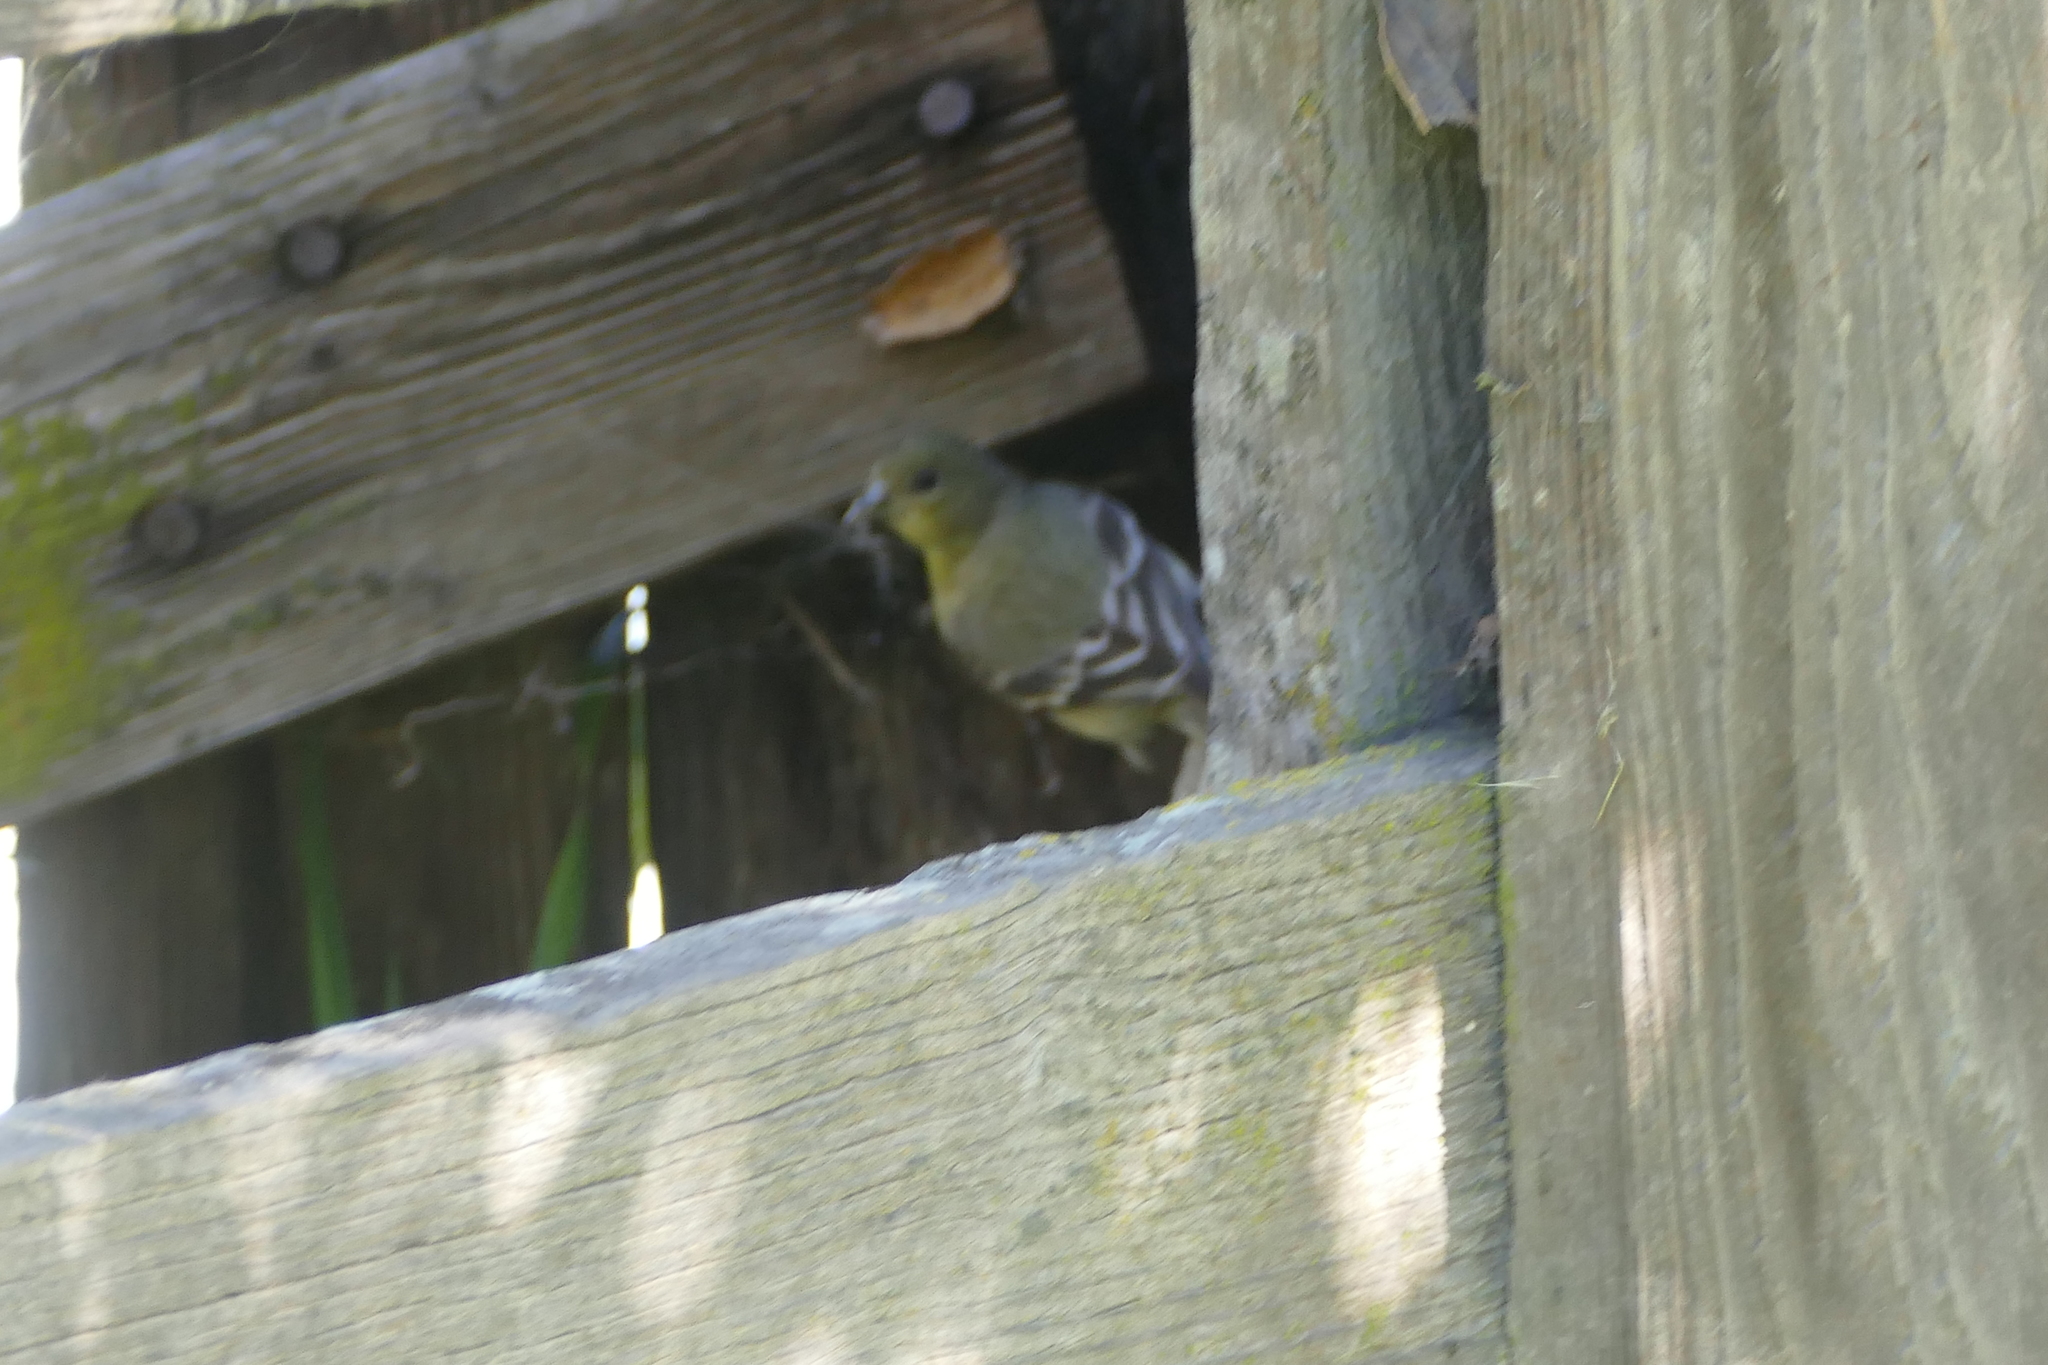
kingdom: Animalia
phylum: Chordata
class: Aves
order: Passeriformes
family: Fringillidae
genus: Spinus
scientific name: Spinus psaltria
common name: Lesser goldfinch
